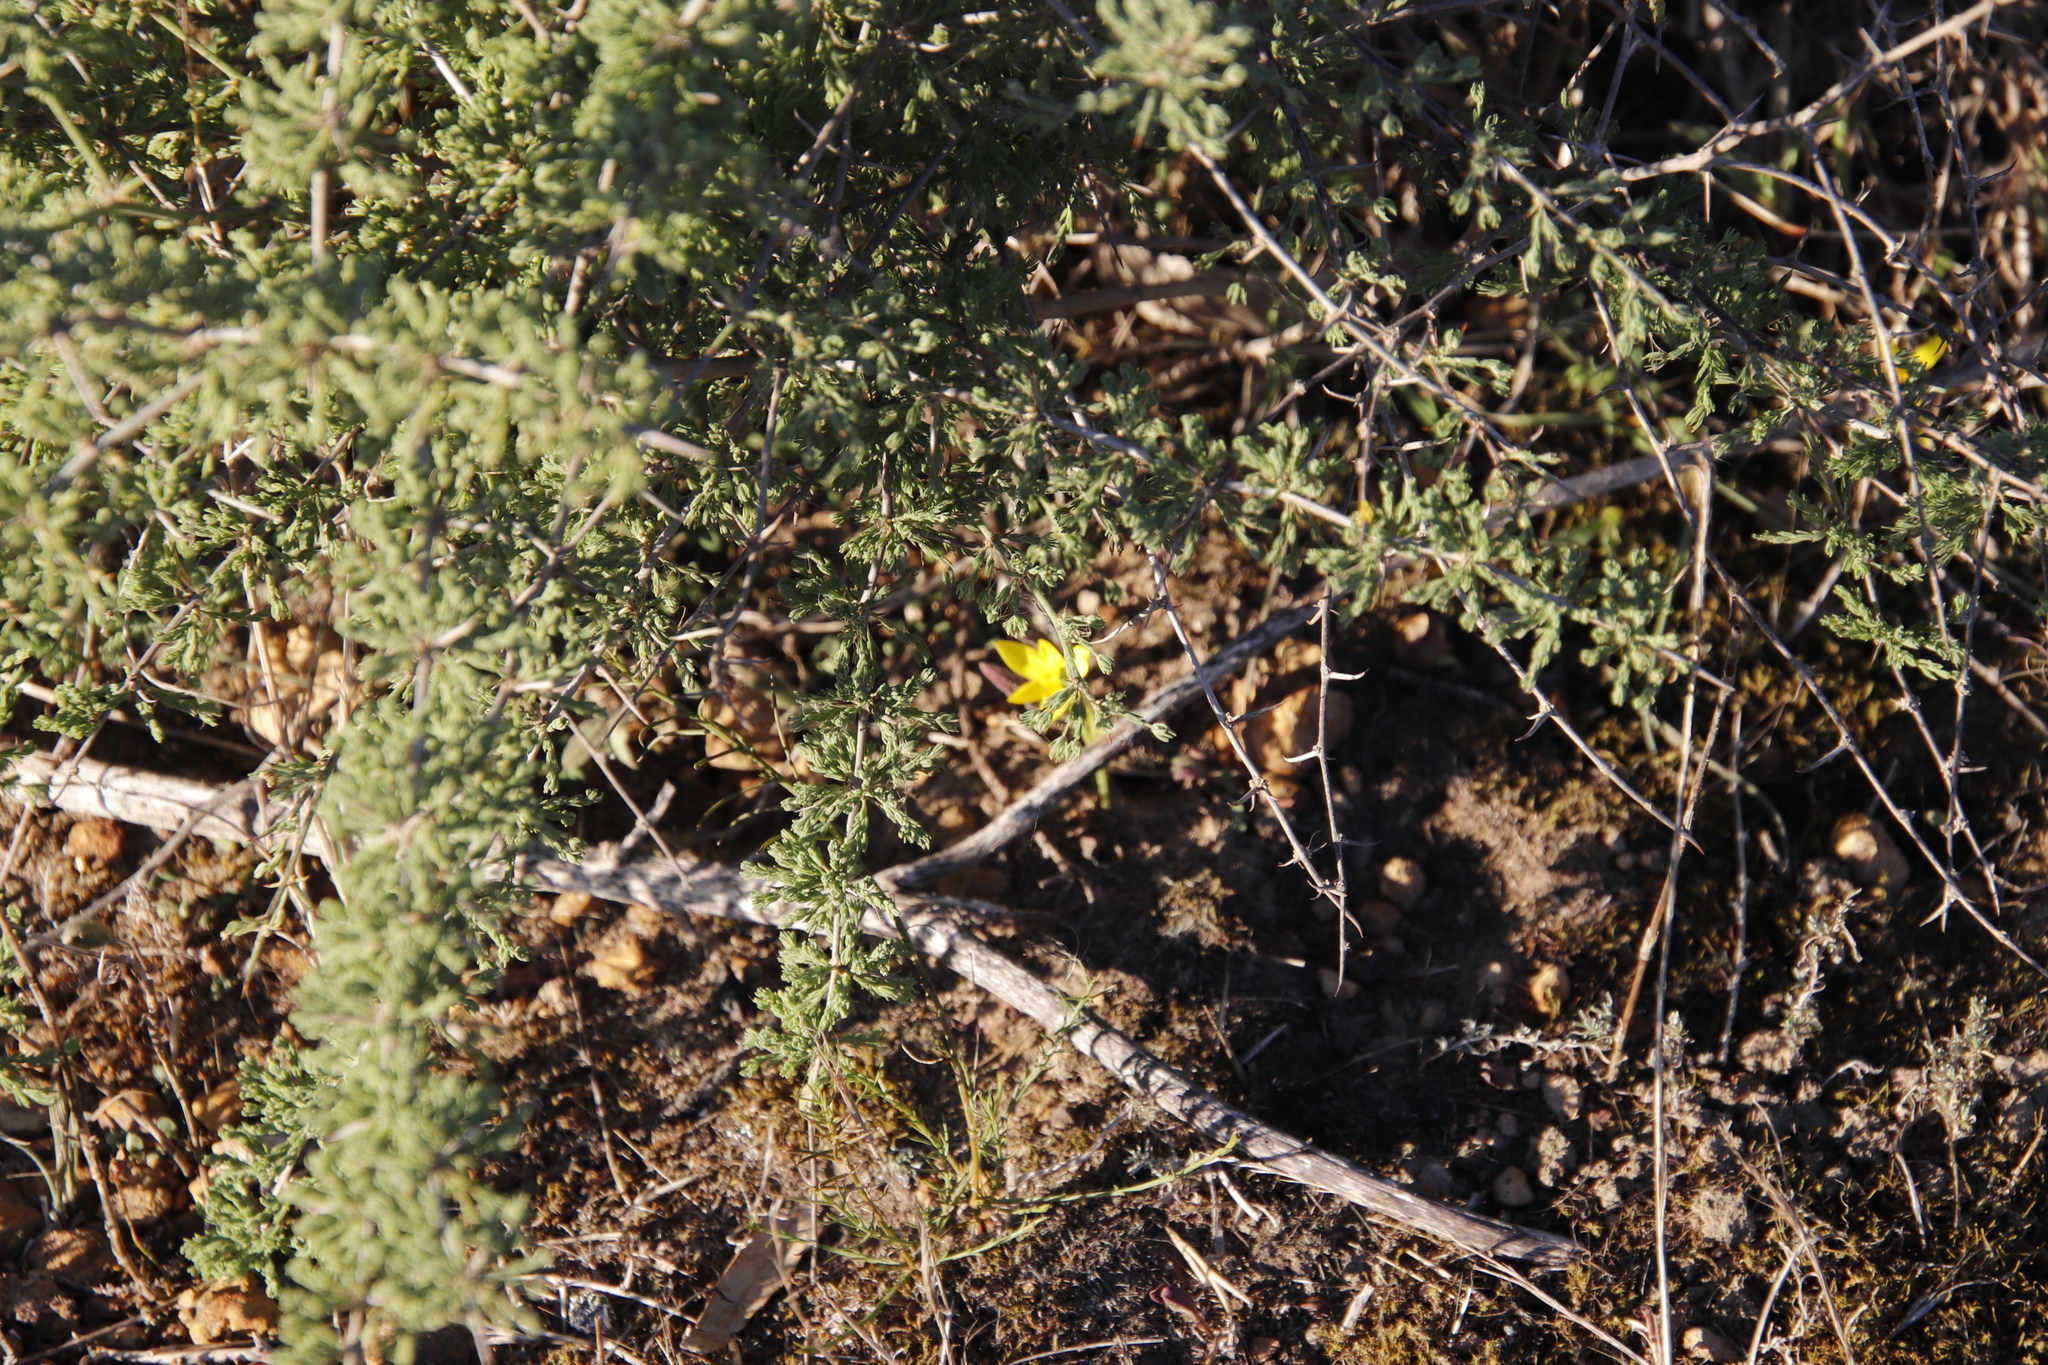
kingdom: Plantae
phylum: Tracheophyta
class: Liliopsida
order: Asparagales
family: Hypoxidaceae
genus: Empodium
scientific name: Empodium plicatum
